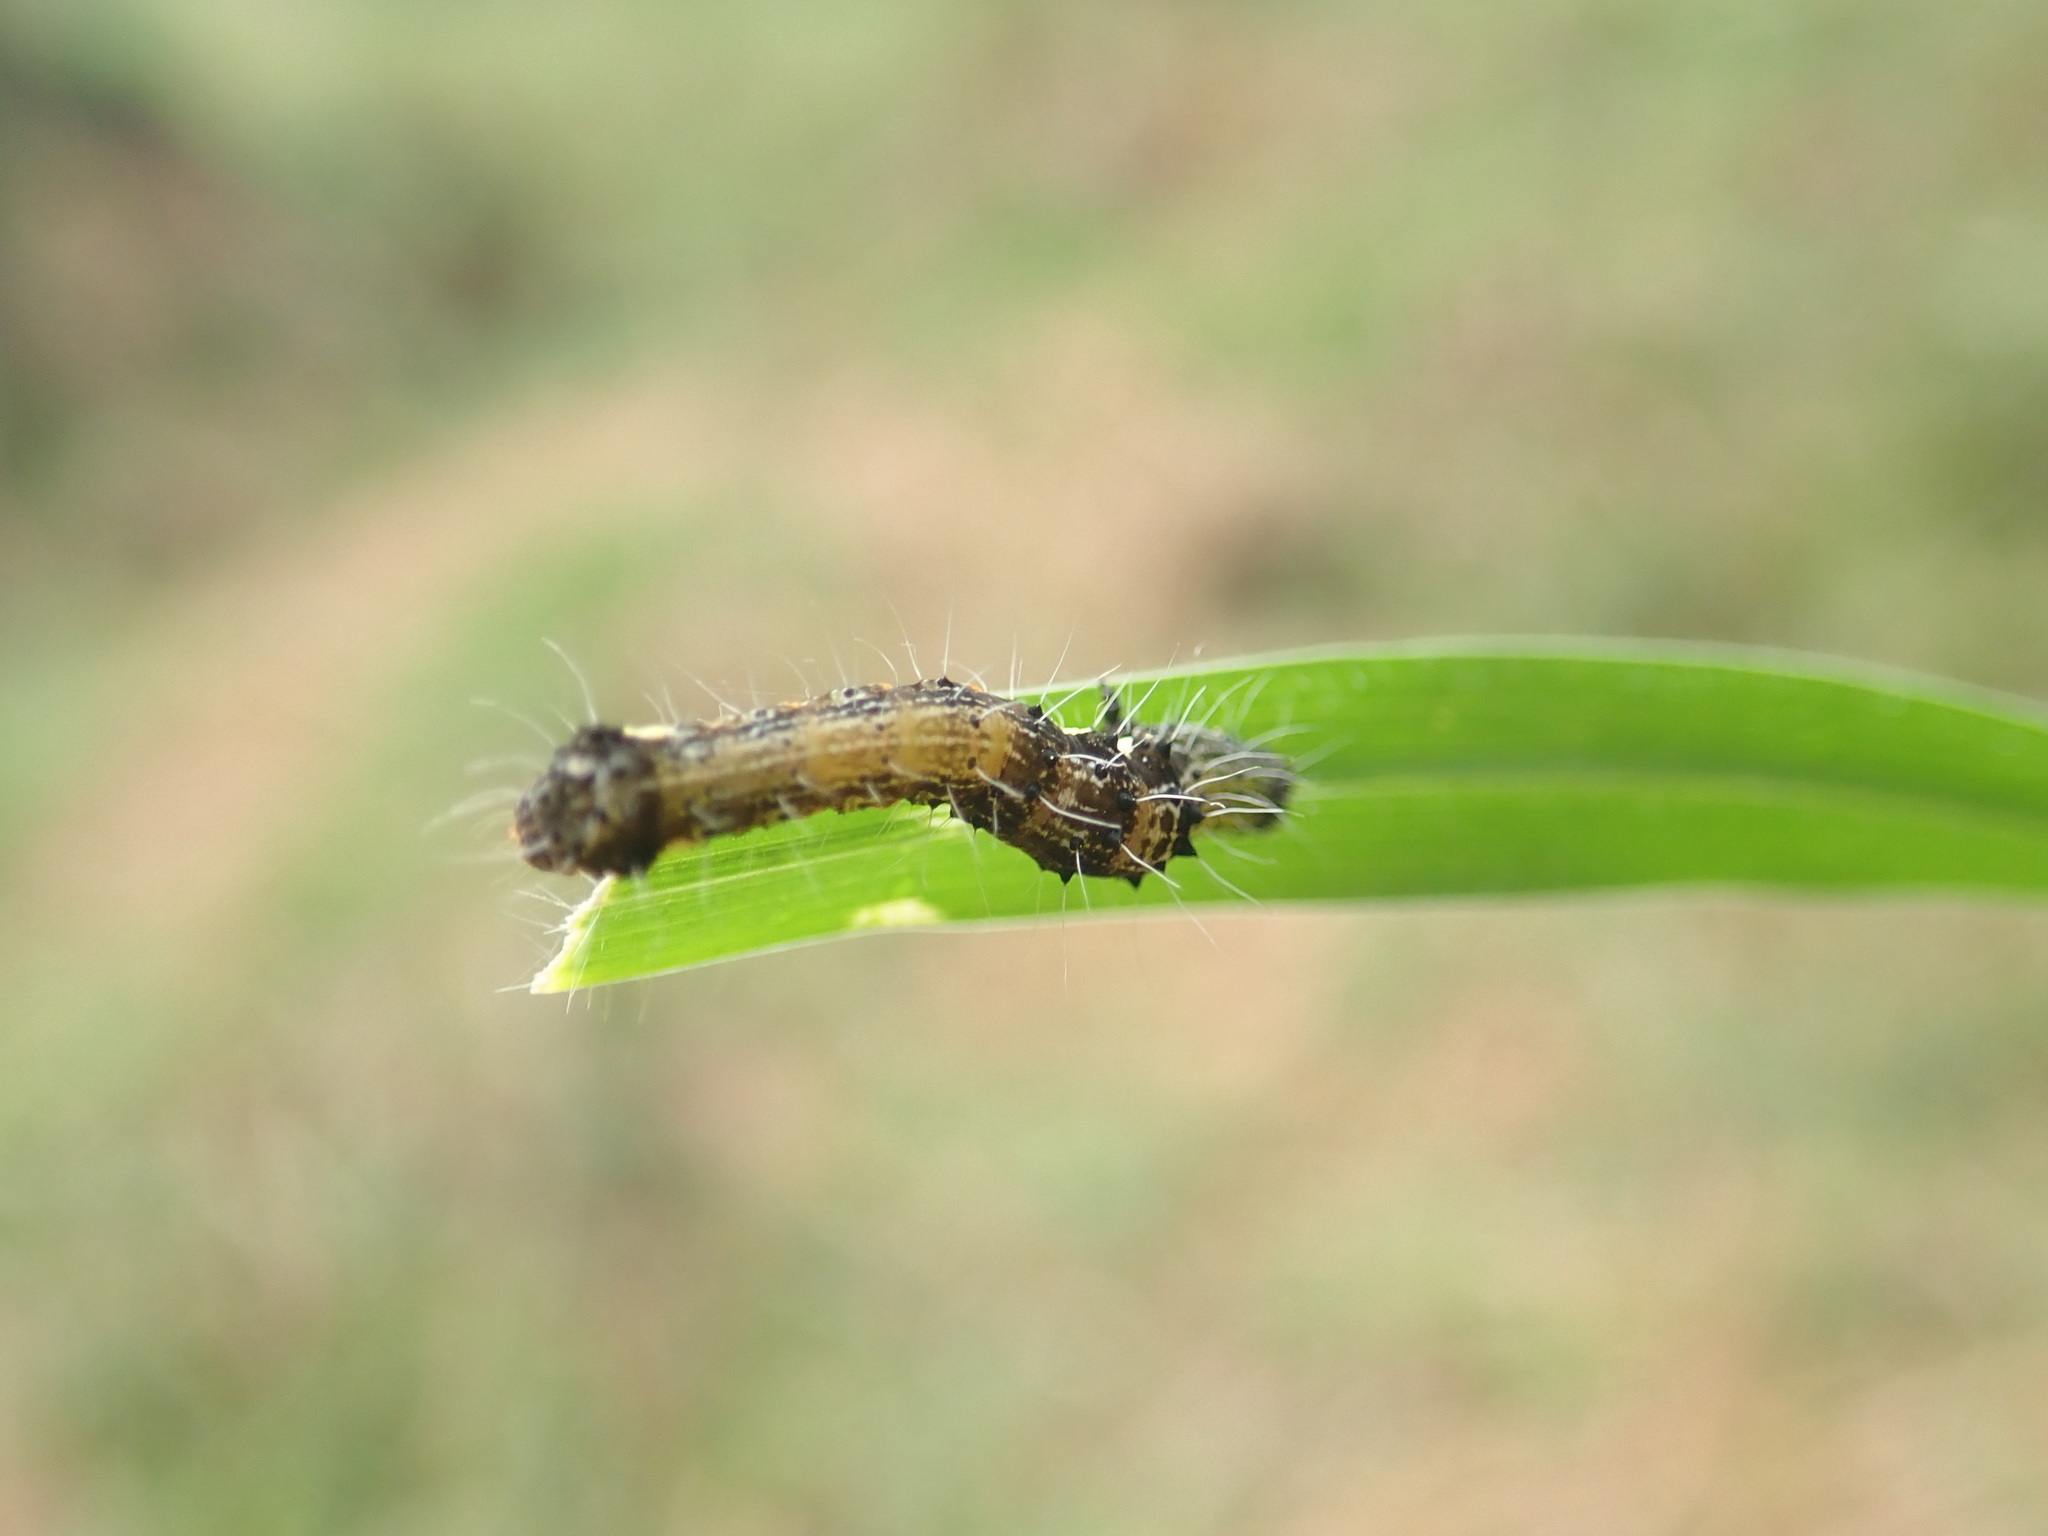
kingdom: Animalia
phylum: Arthropoda
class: Insecta
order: Lepidoptera
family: Noctuidae
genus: Tiracola
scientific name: Tiracola plagiata
